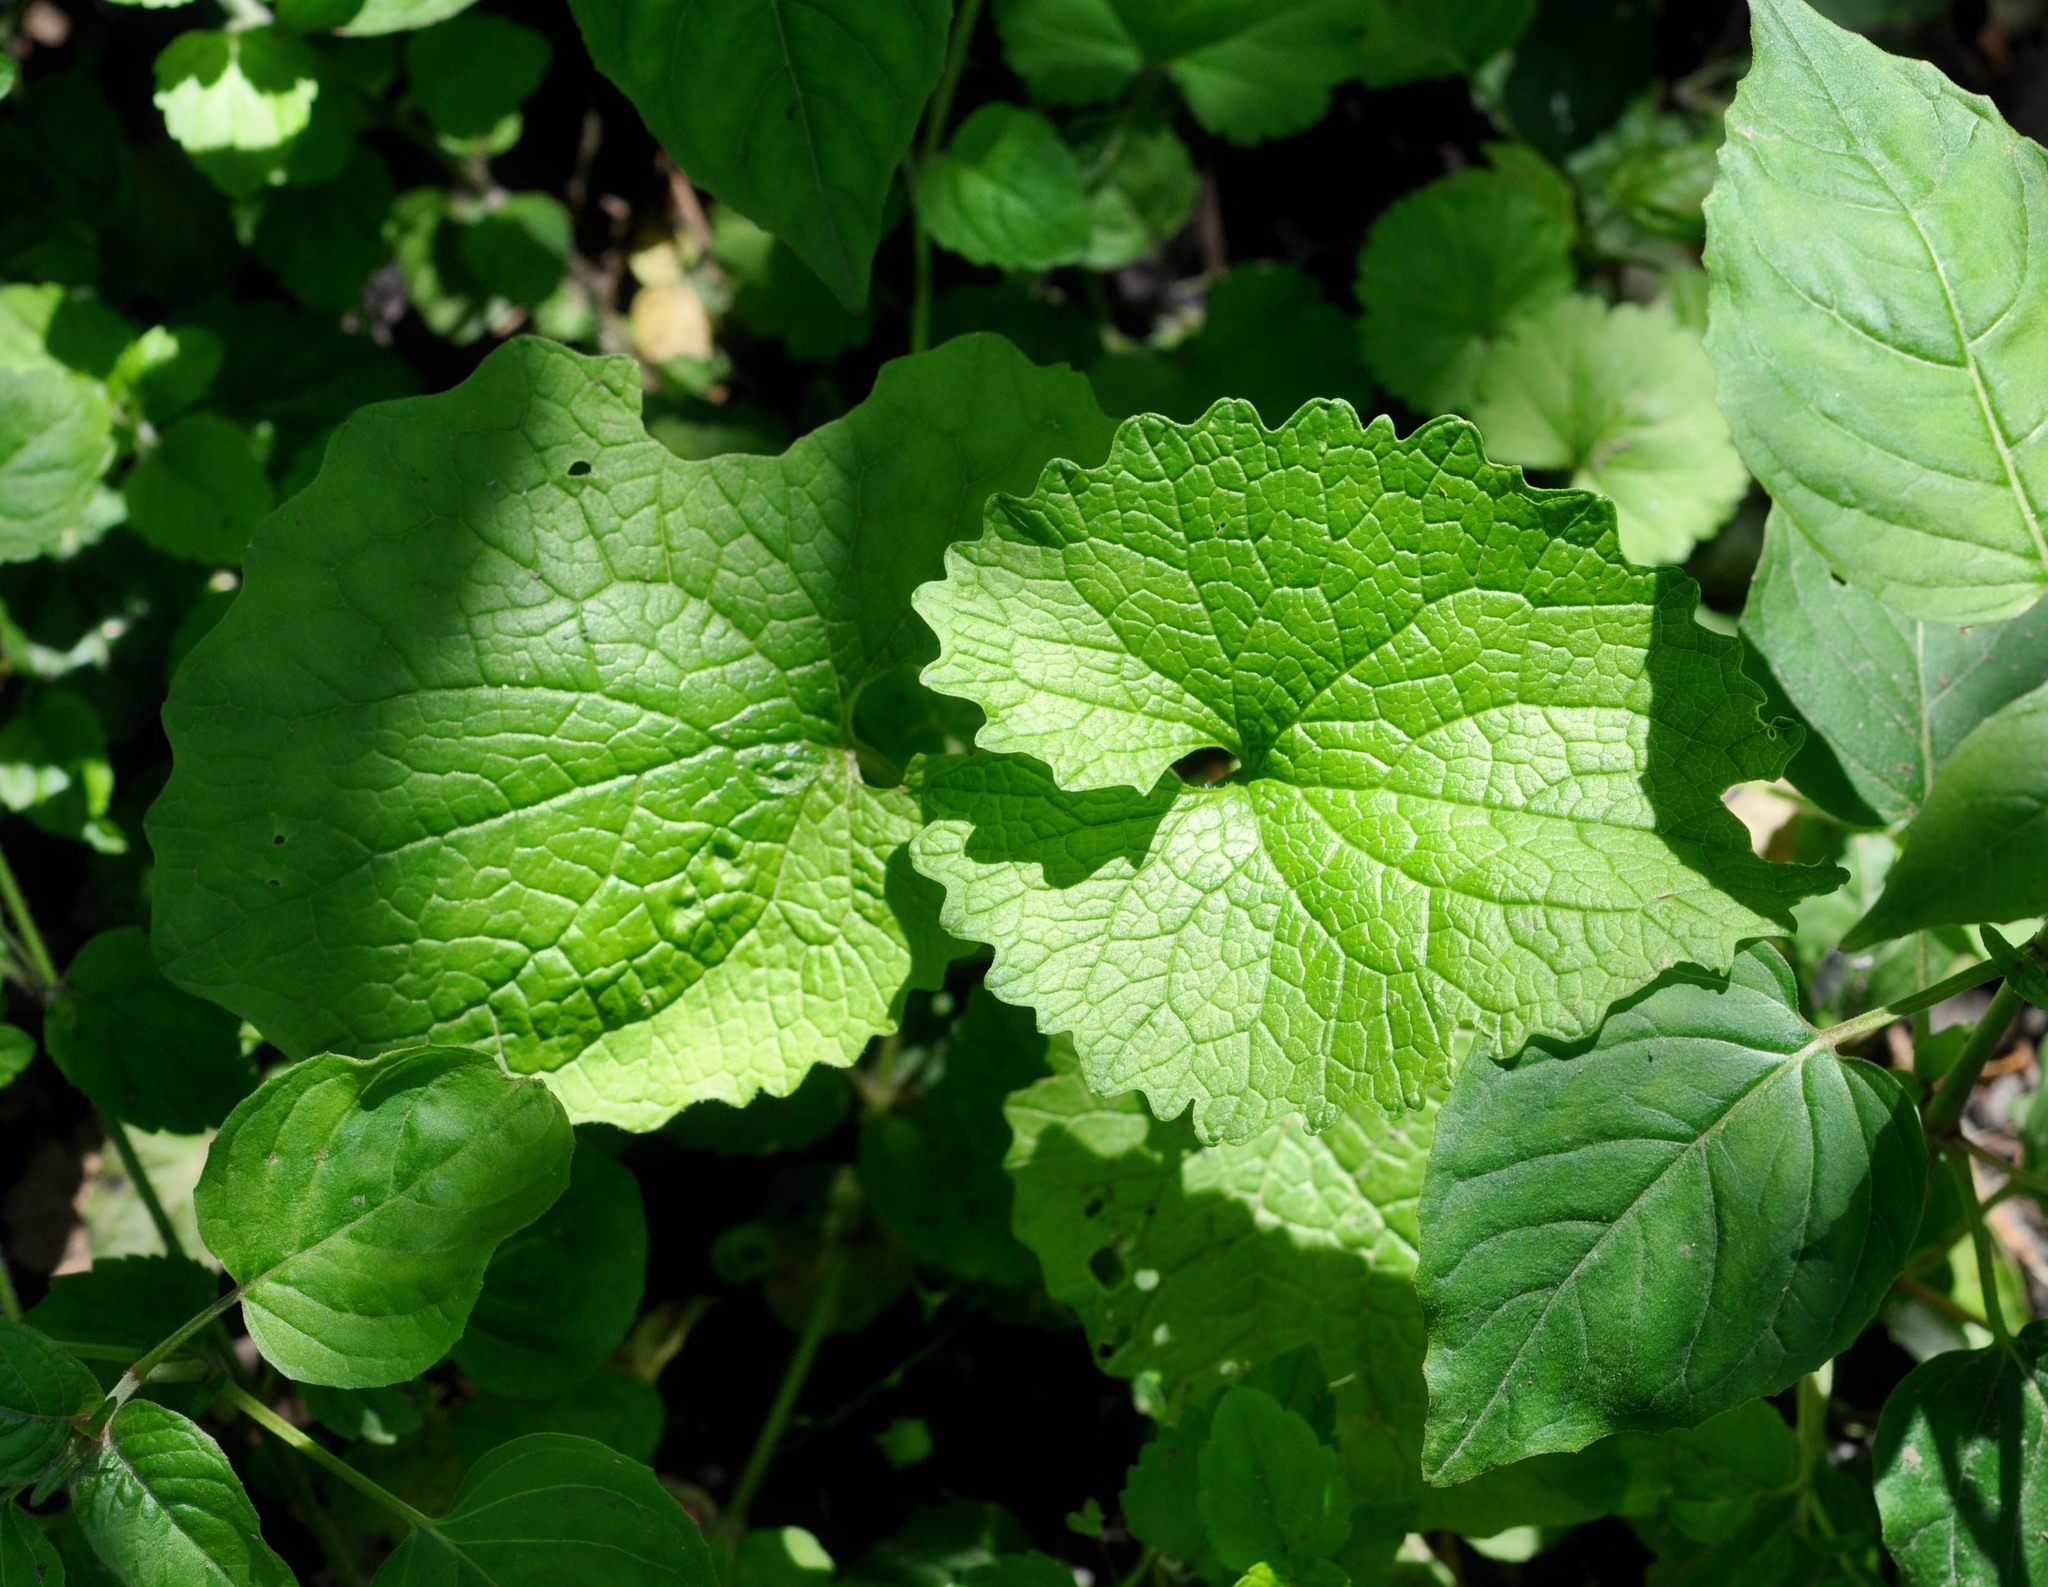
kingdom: Plantae
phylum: Tracheophyta
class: Magnoliopsida
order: Brassicales
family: Brassicaceae
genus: Alliaria
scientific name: Alliaria petiolata
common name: Garlic mustard
